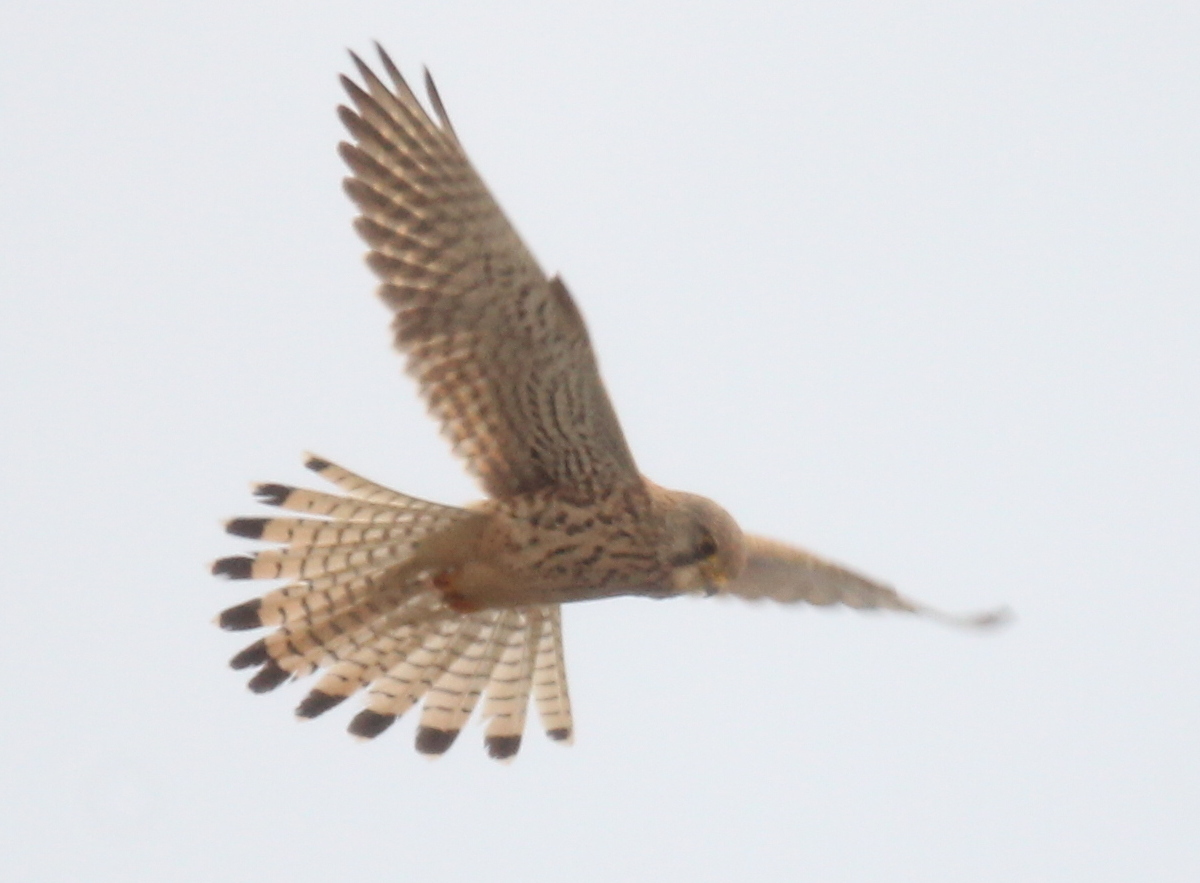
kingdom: Animalia
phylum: Chordata
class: Aves
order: Falconiformes
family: Falconidae
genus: Falco
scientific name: Falco tinnunculus
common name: Common kestrel
